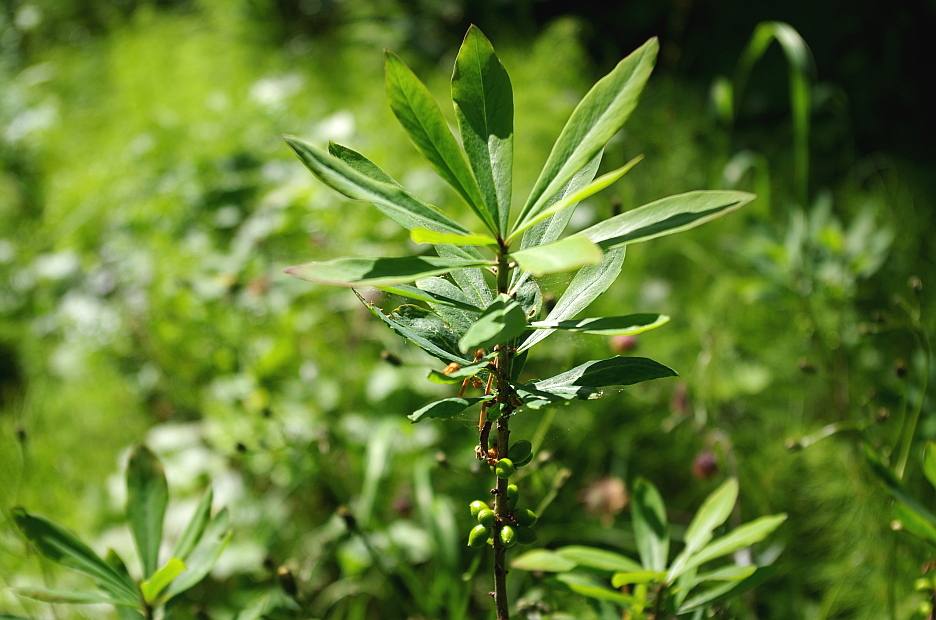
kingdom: Plantae
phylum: Tracheophyta
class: Magnoliopsida
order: Malvales
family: Thymelaeaceae
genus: Daphne
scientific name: Daphne mezereum
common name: Mezereon
